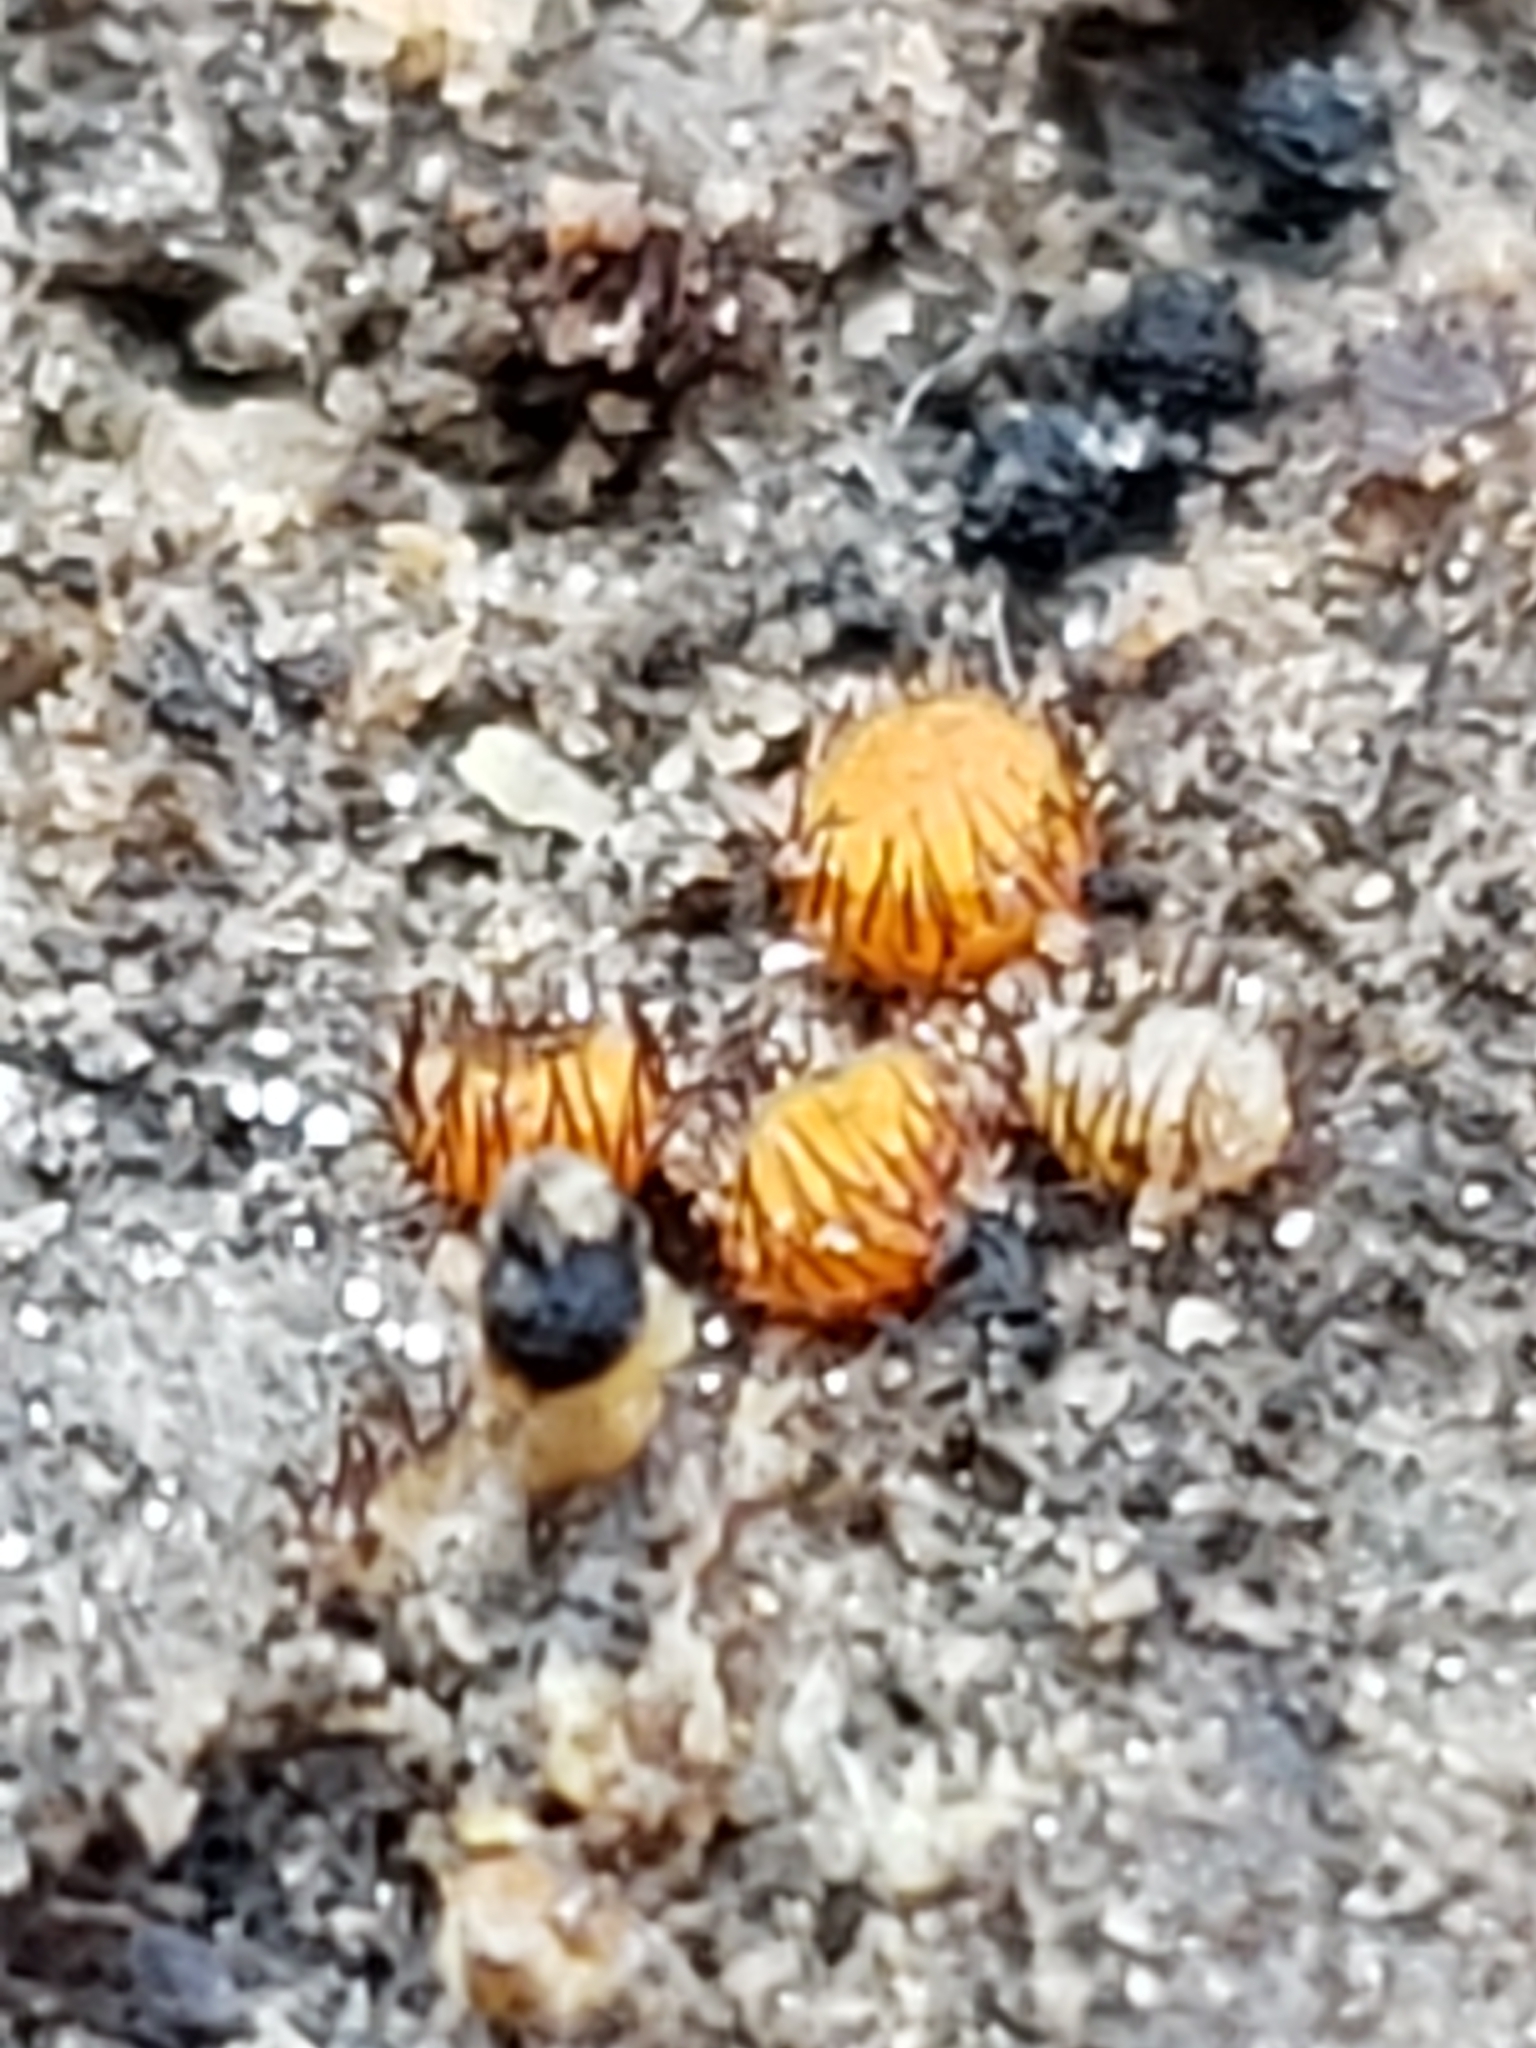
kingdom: Fungi
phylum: Ascomycota
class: Pezizomycetes
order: Pezizales
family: Pyronemataceae
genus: Scutellinia
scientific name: Scutellinia erinaceus
